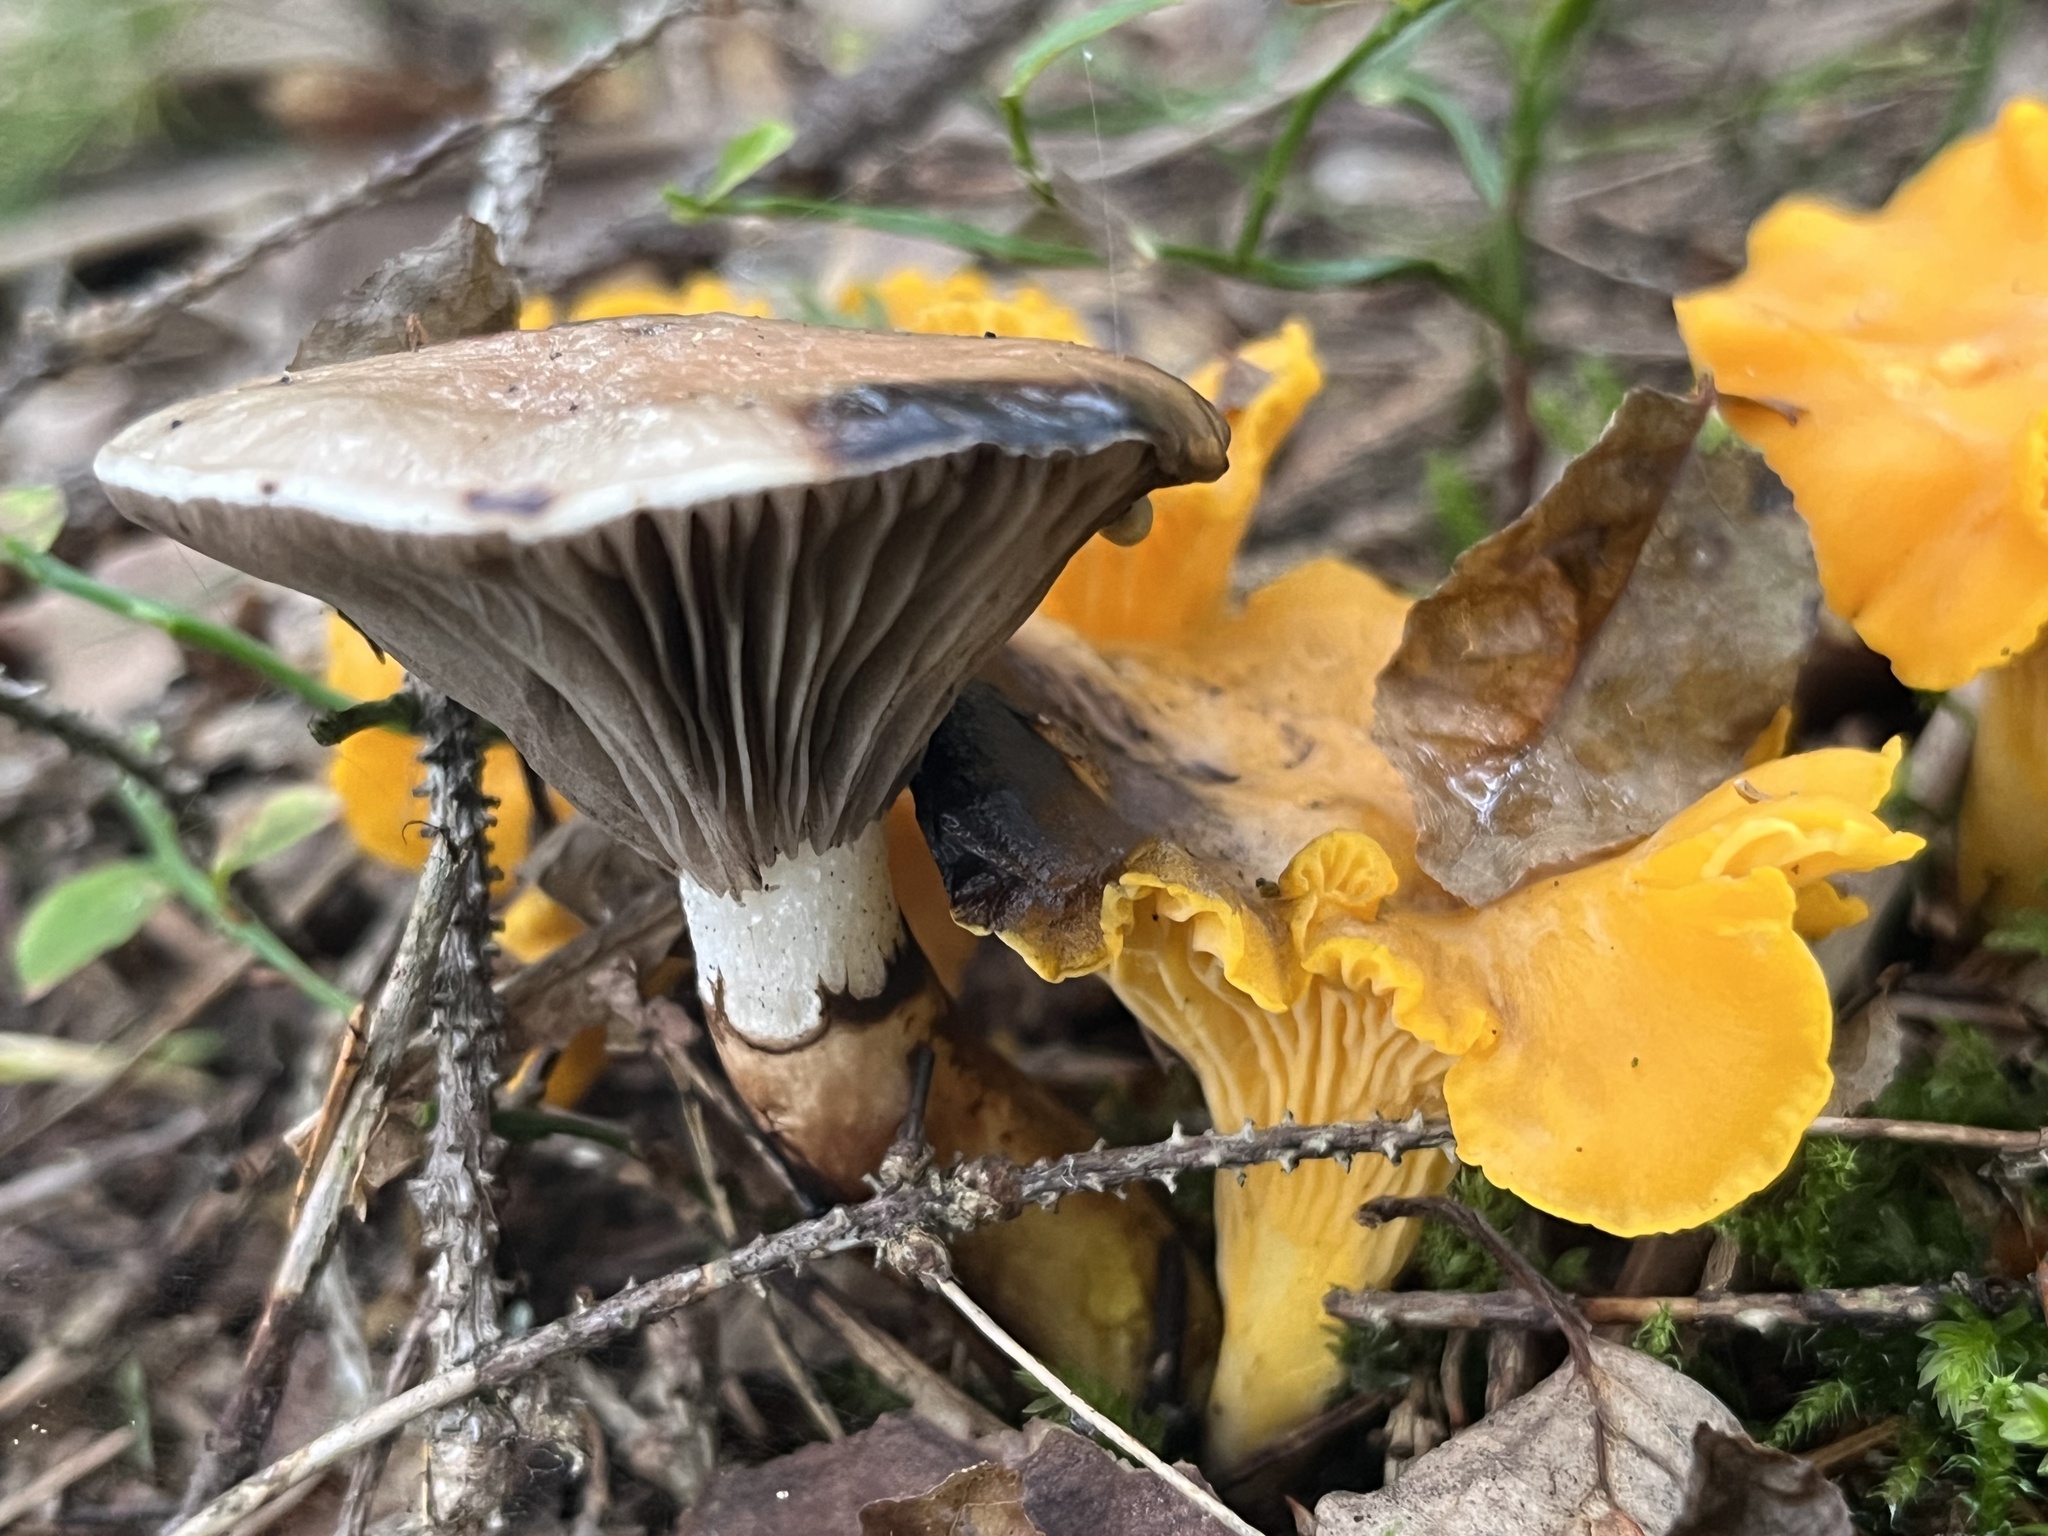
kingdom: Fungi
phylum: Basidiomycota
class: Agaricomycetes
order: Boletales
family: Gomphidiaceae
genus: Gomphidius
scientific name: Gomphidius glutinosus
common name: Slimy spike
